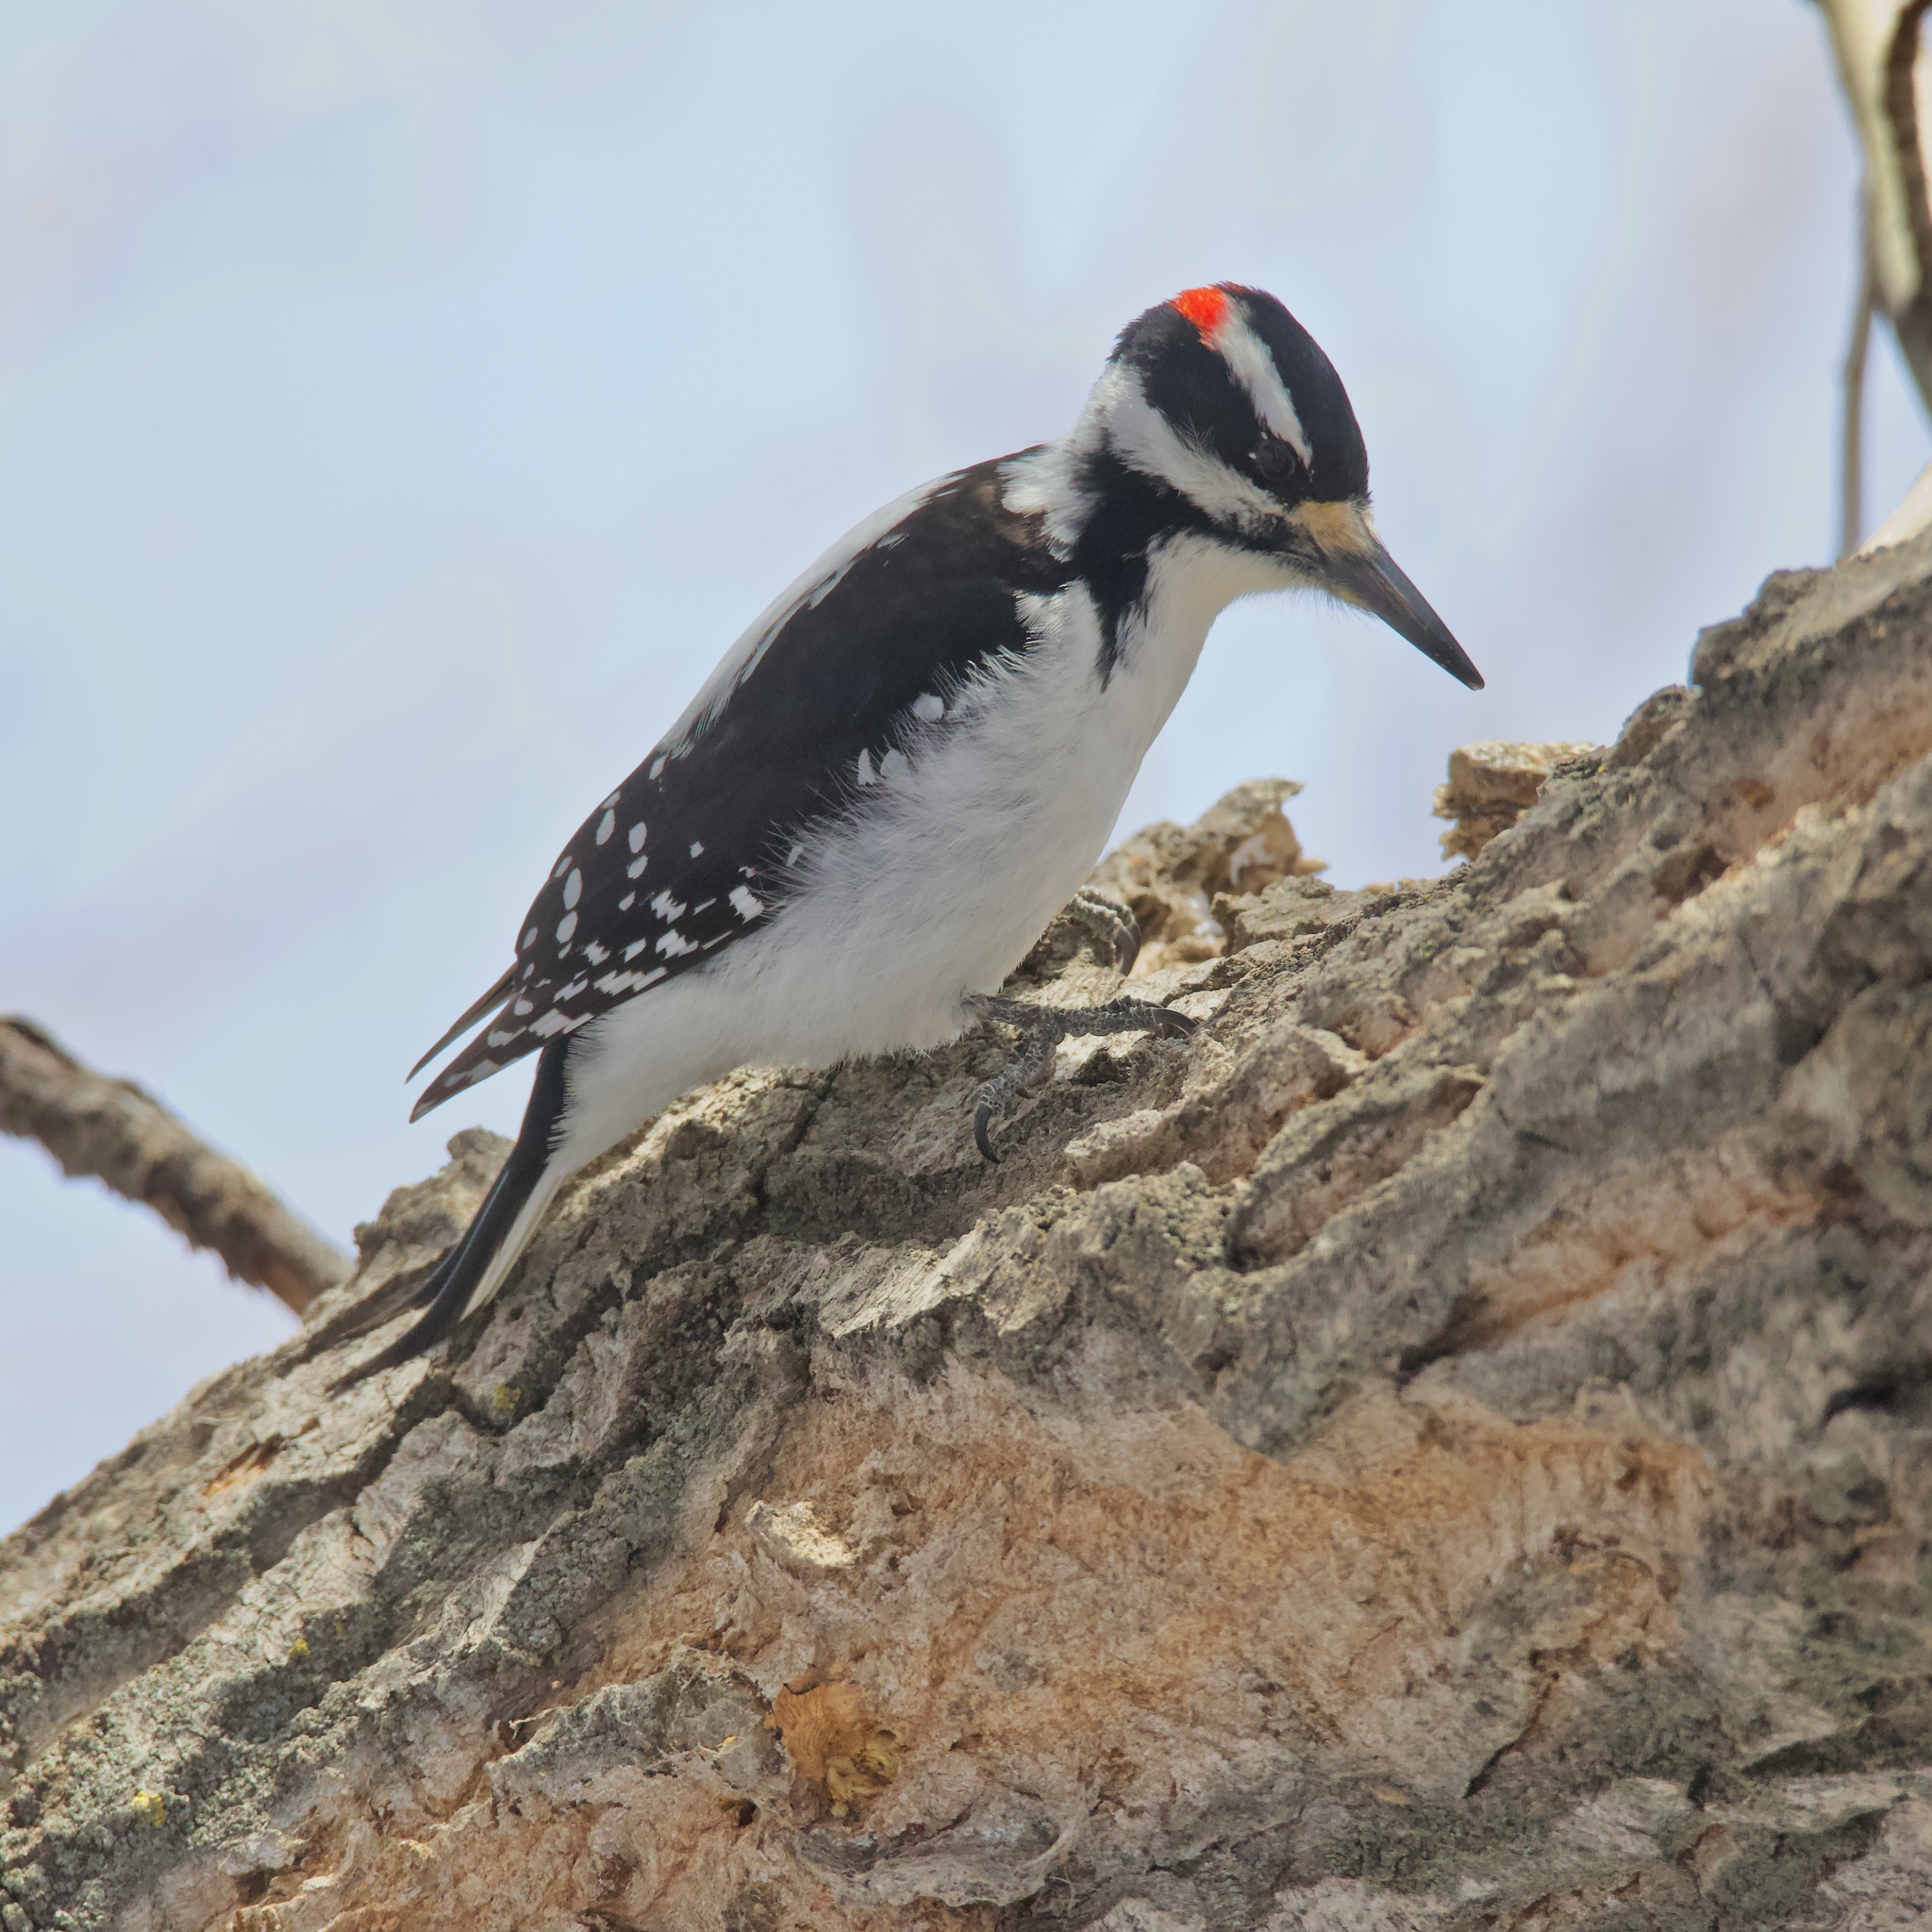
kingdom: Animalia
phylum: Chordata
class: Aves
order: Piciformes
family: Picidae
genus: Leuconotopicus
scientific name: Leuconotopicus villosus
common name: Hairy woodpecker
